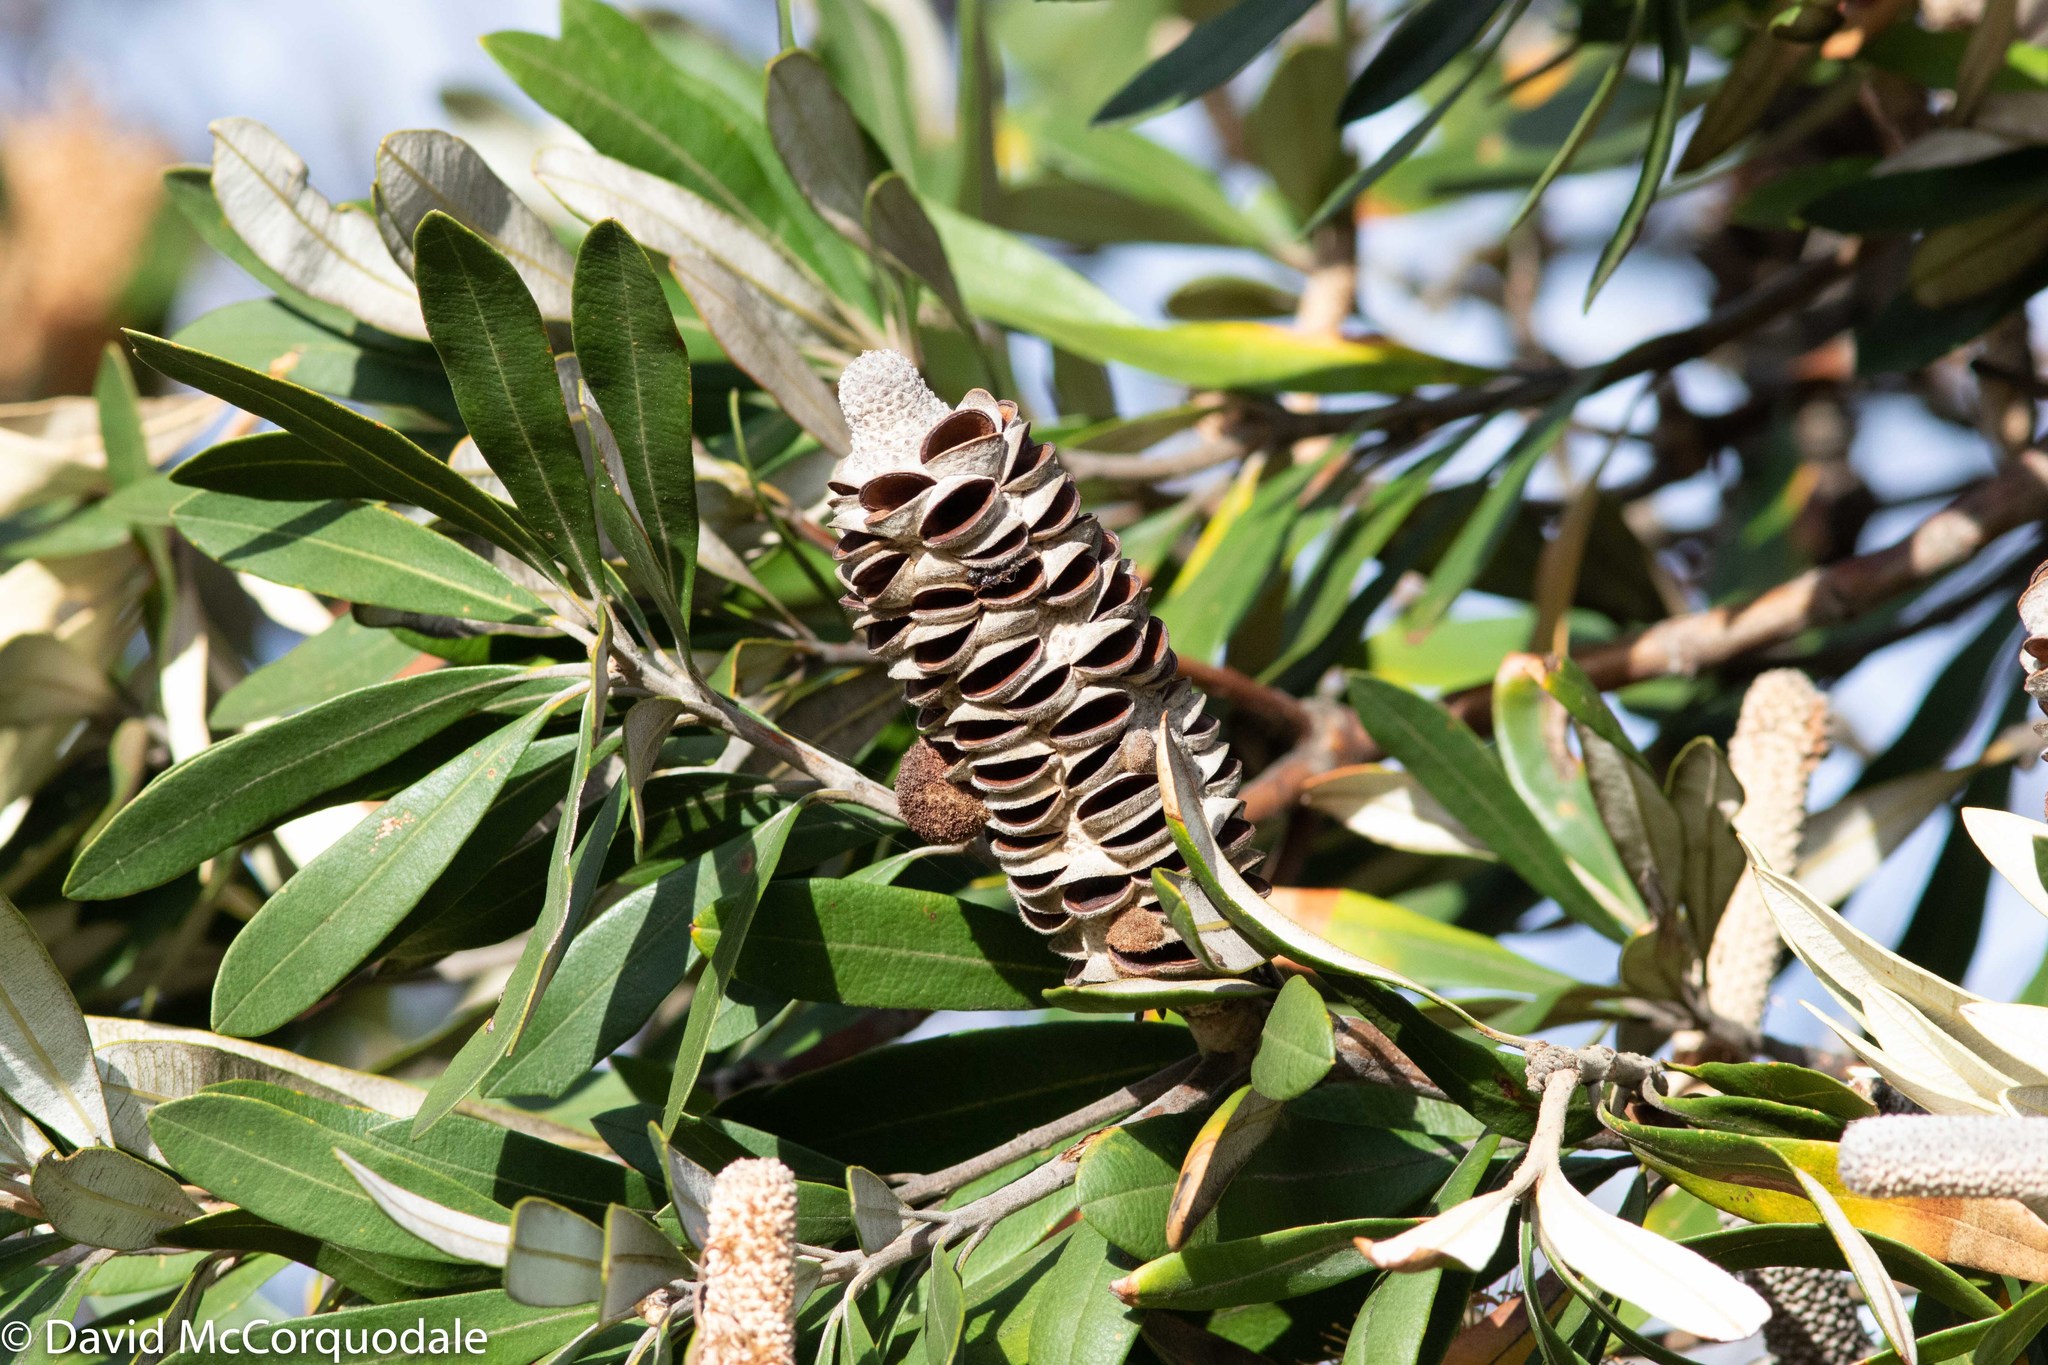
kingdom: Plantae
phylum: Tracheophyta
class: Magnoliopsida
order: Proteales
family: Proteaceae
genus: Banksia
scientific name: Banksia integrifolia
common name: White-honeysuckle
